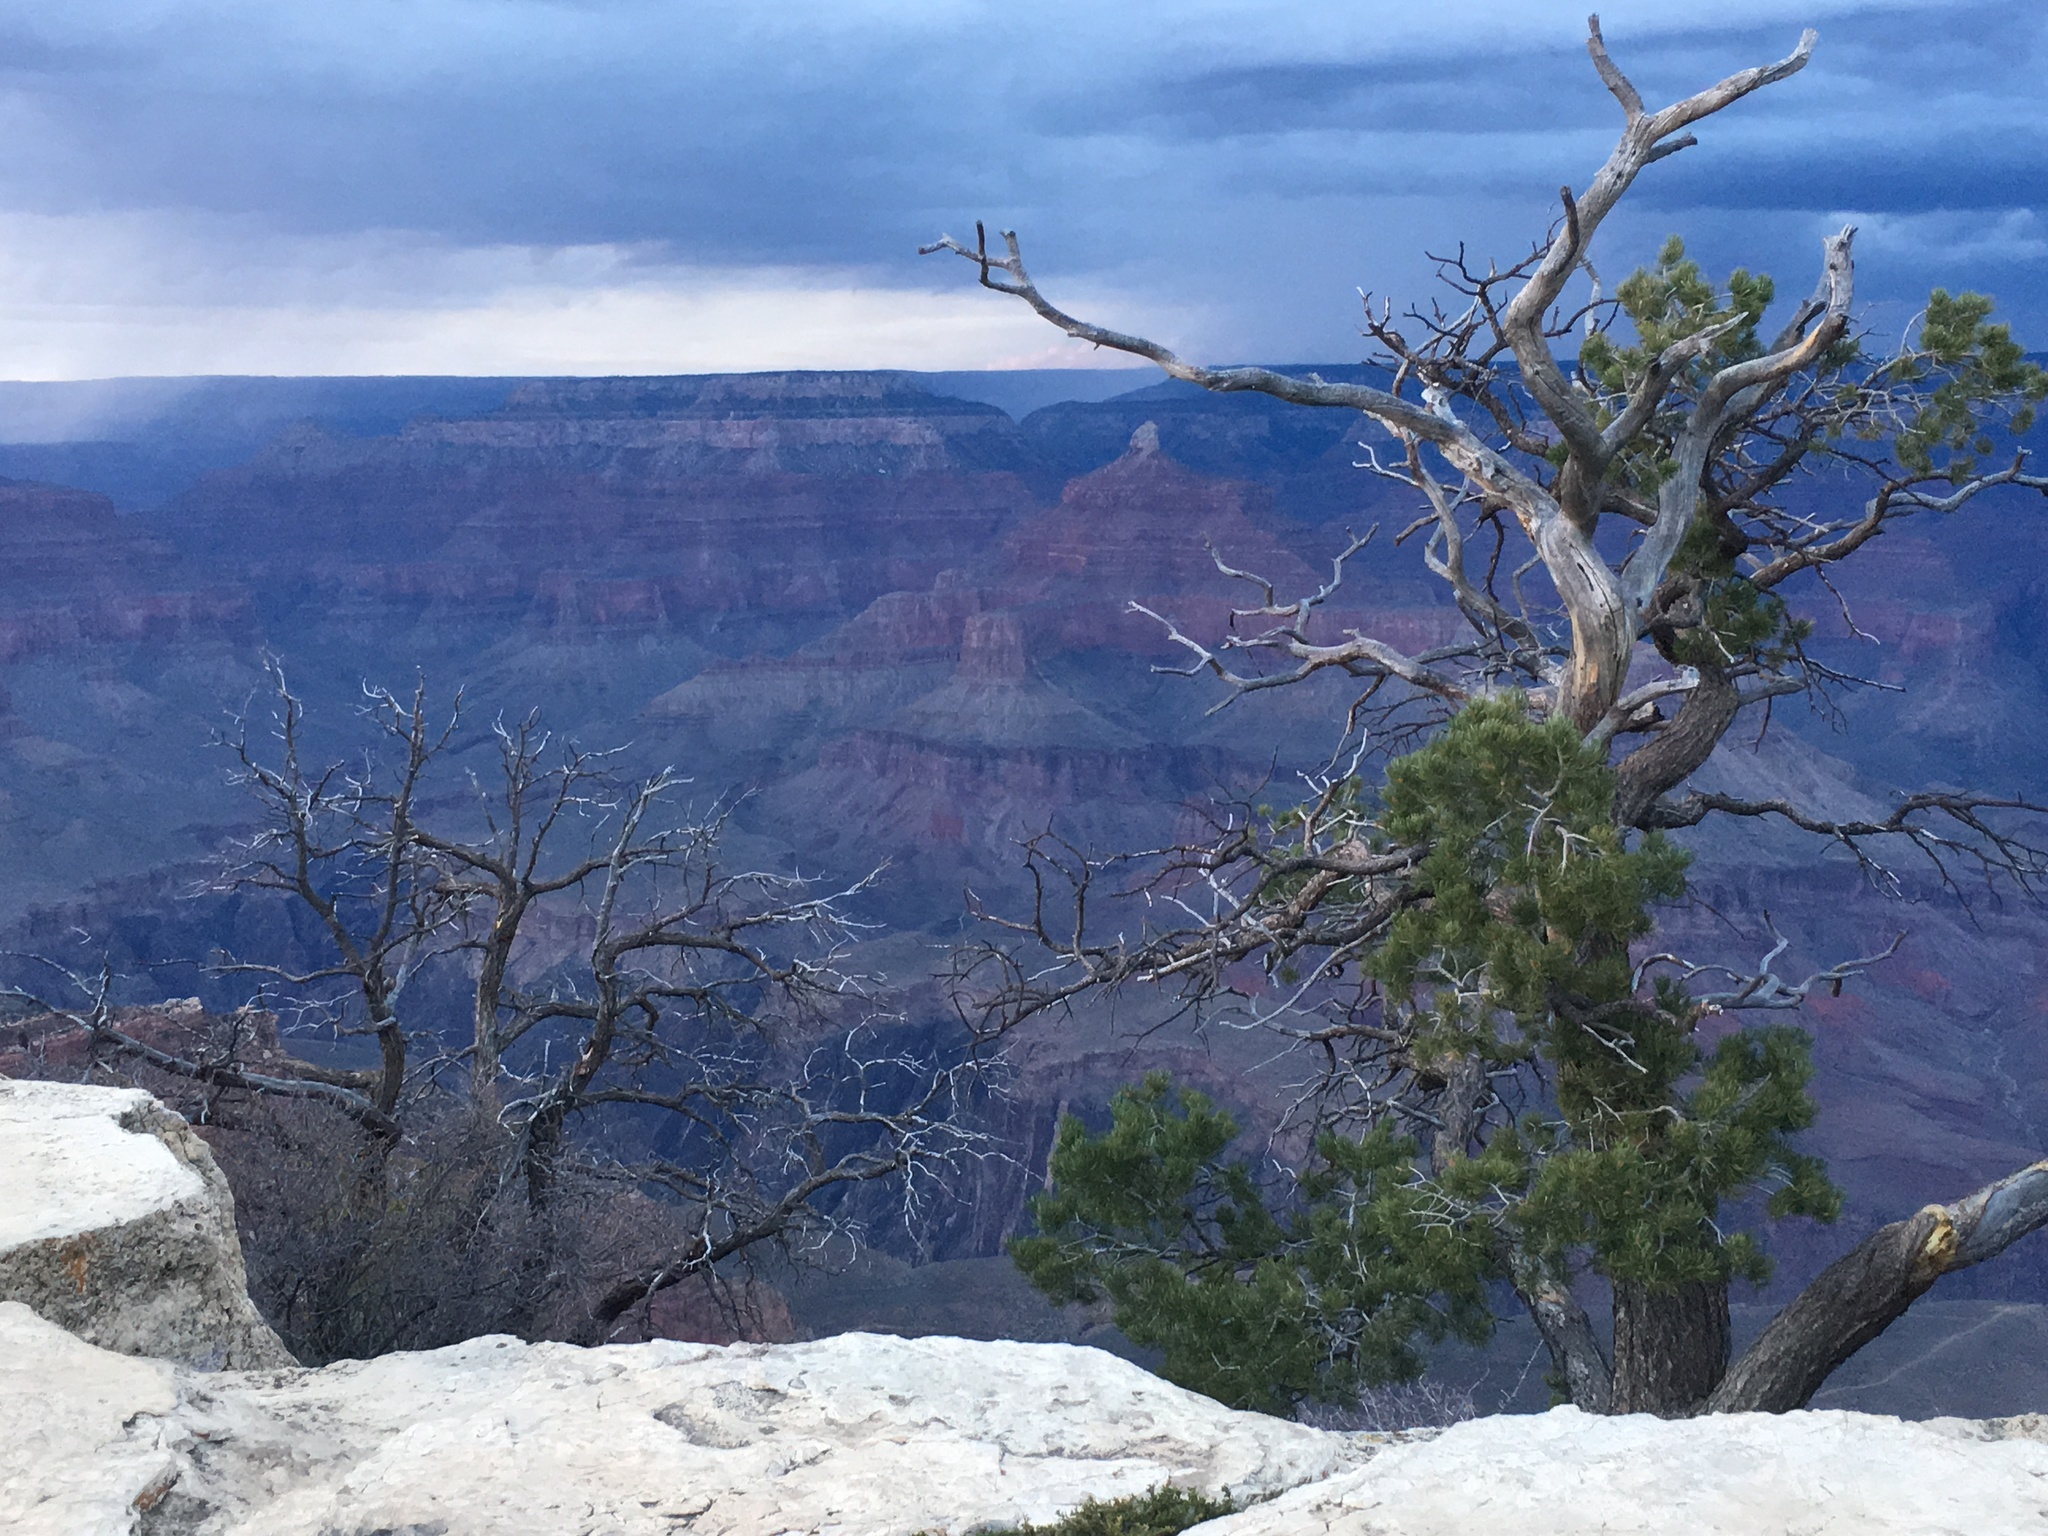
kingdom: Plantae
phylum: Tracheophyta
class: Pinopsida
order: Pinales
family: Pinaceae
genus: Pinus
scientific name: Pinus edulis
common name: Colorado pinyon
